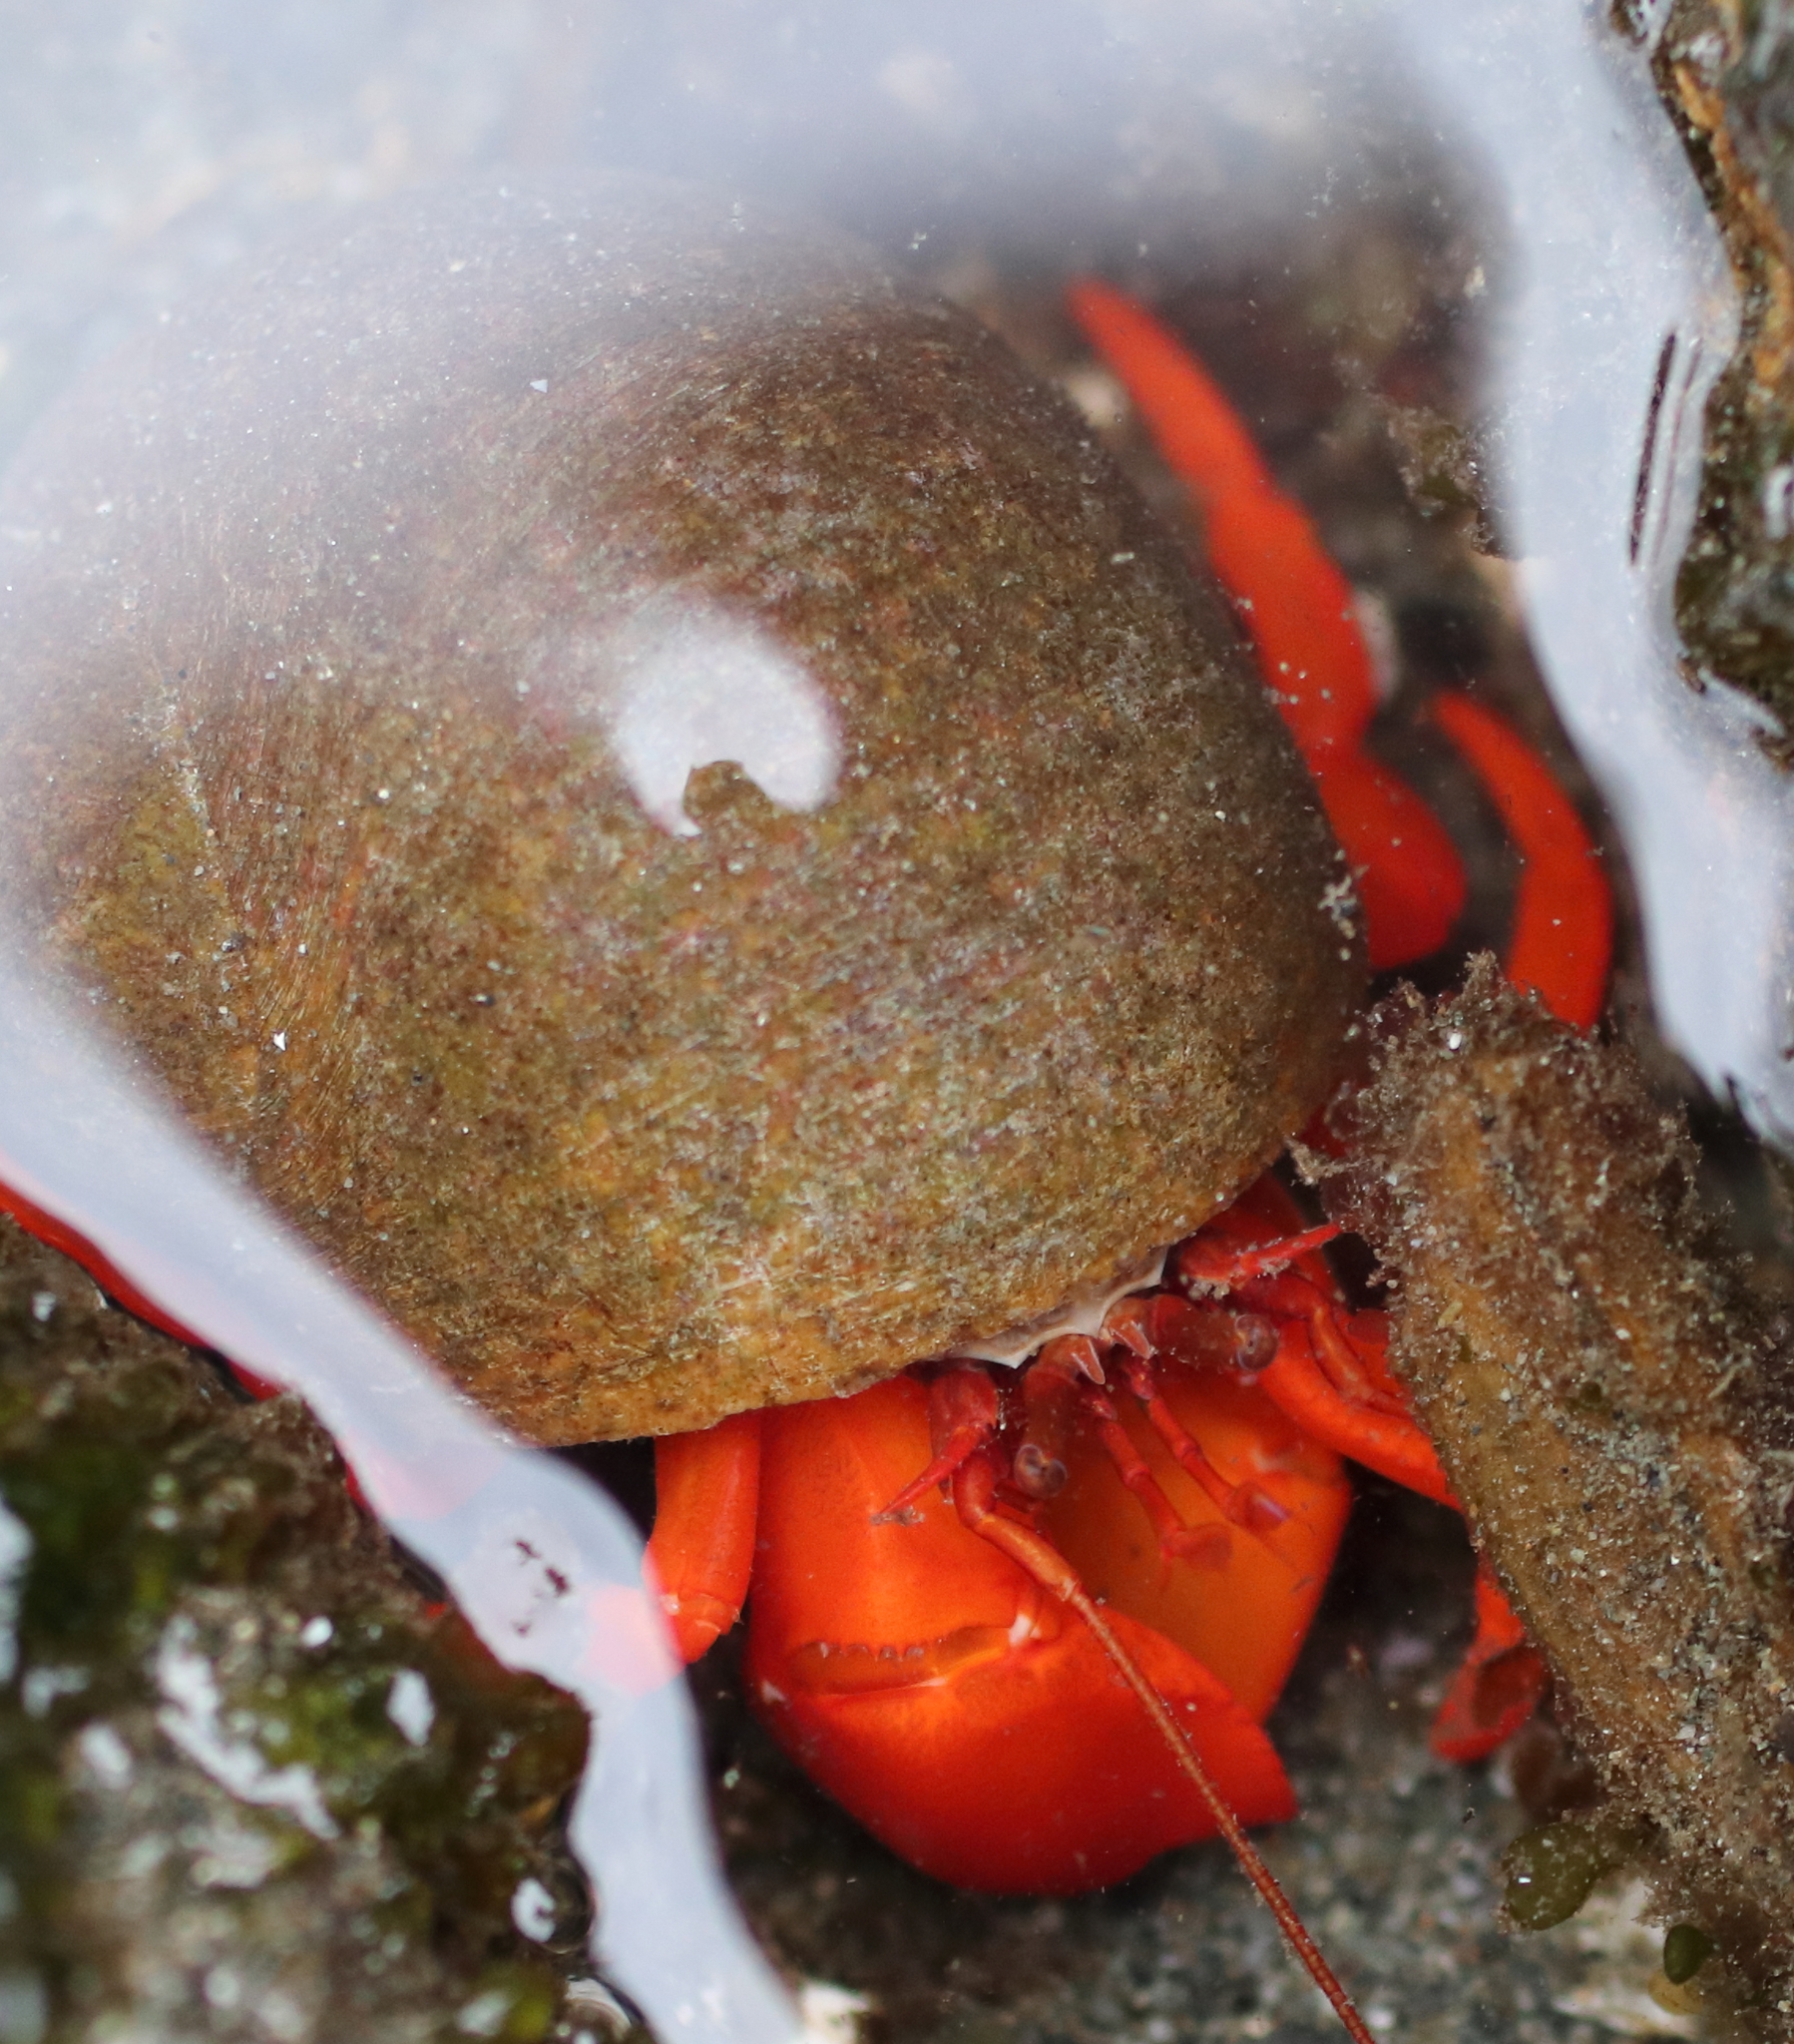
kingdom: Animalia
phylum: Arthropoda
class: Malacostraca
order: Decapoda
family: Paguridae
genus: Elassochirus
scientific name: Elassochirus gilli
